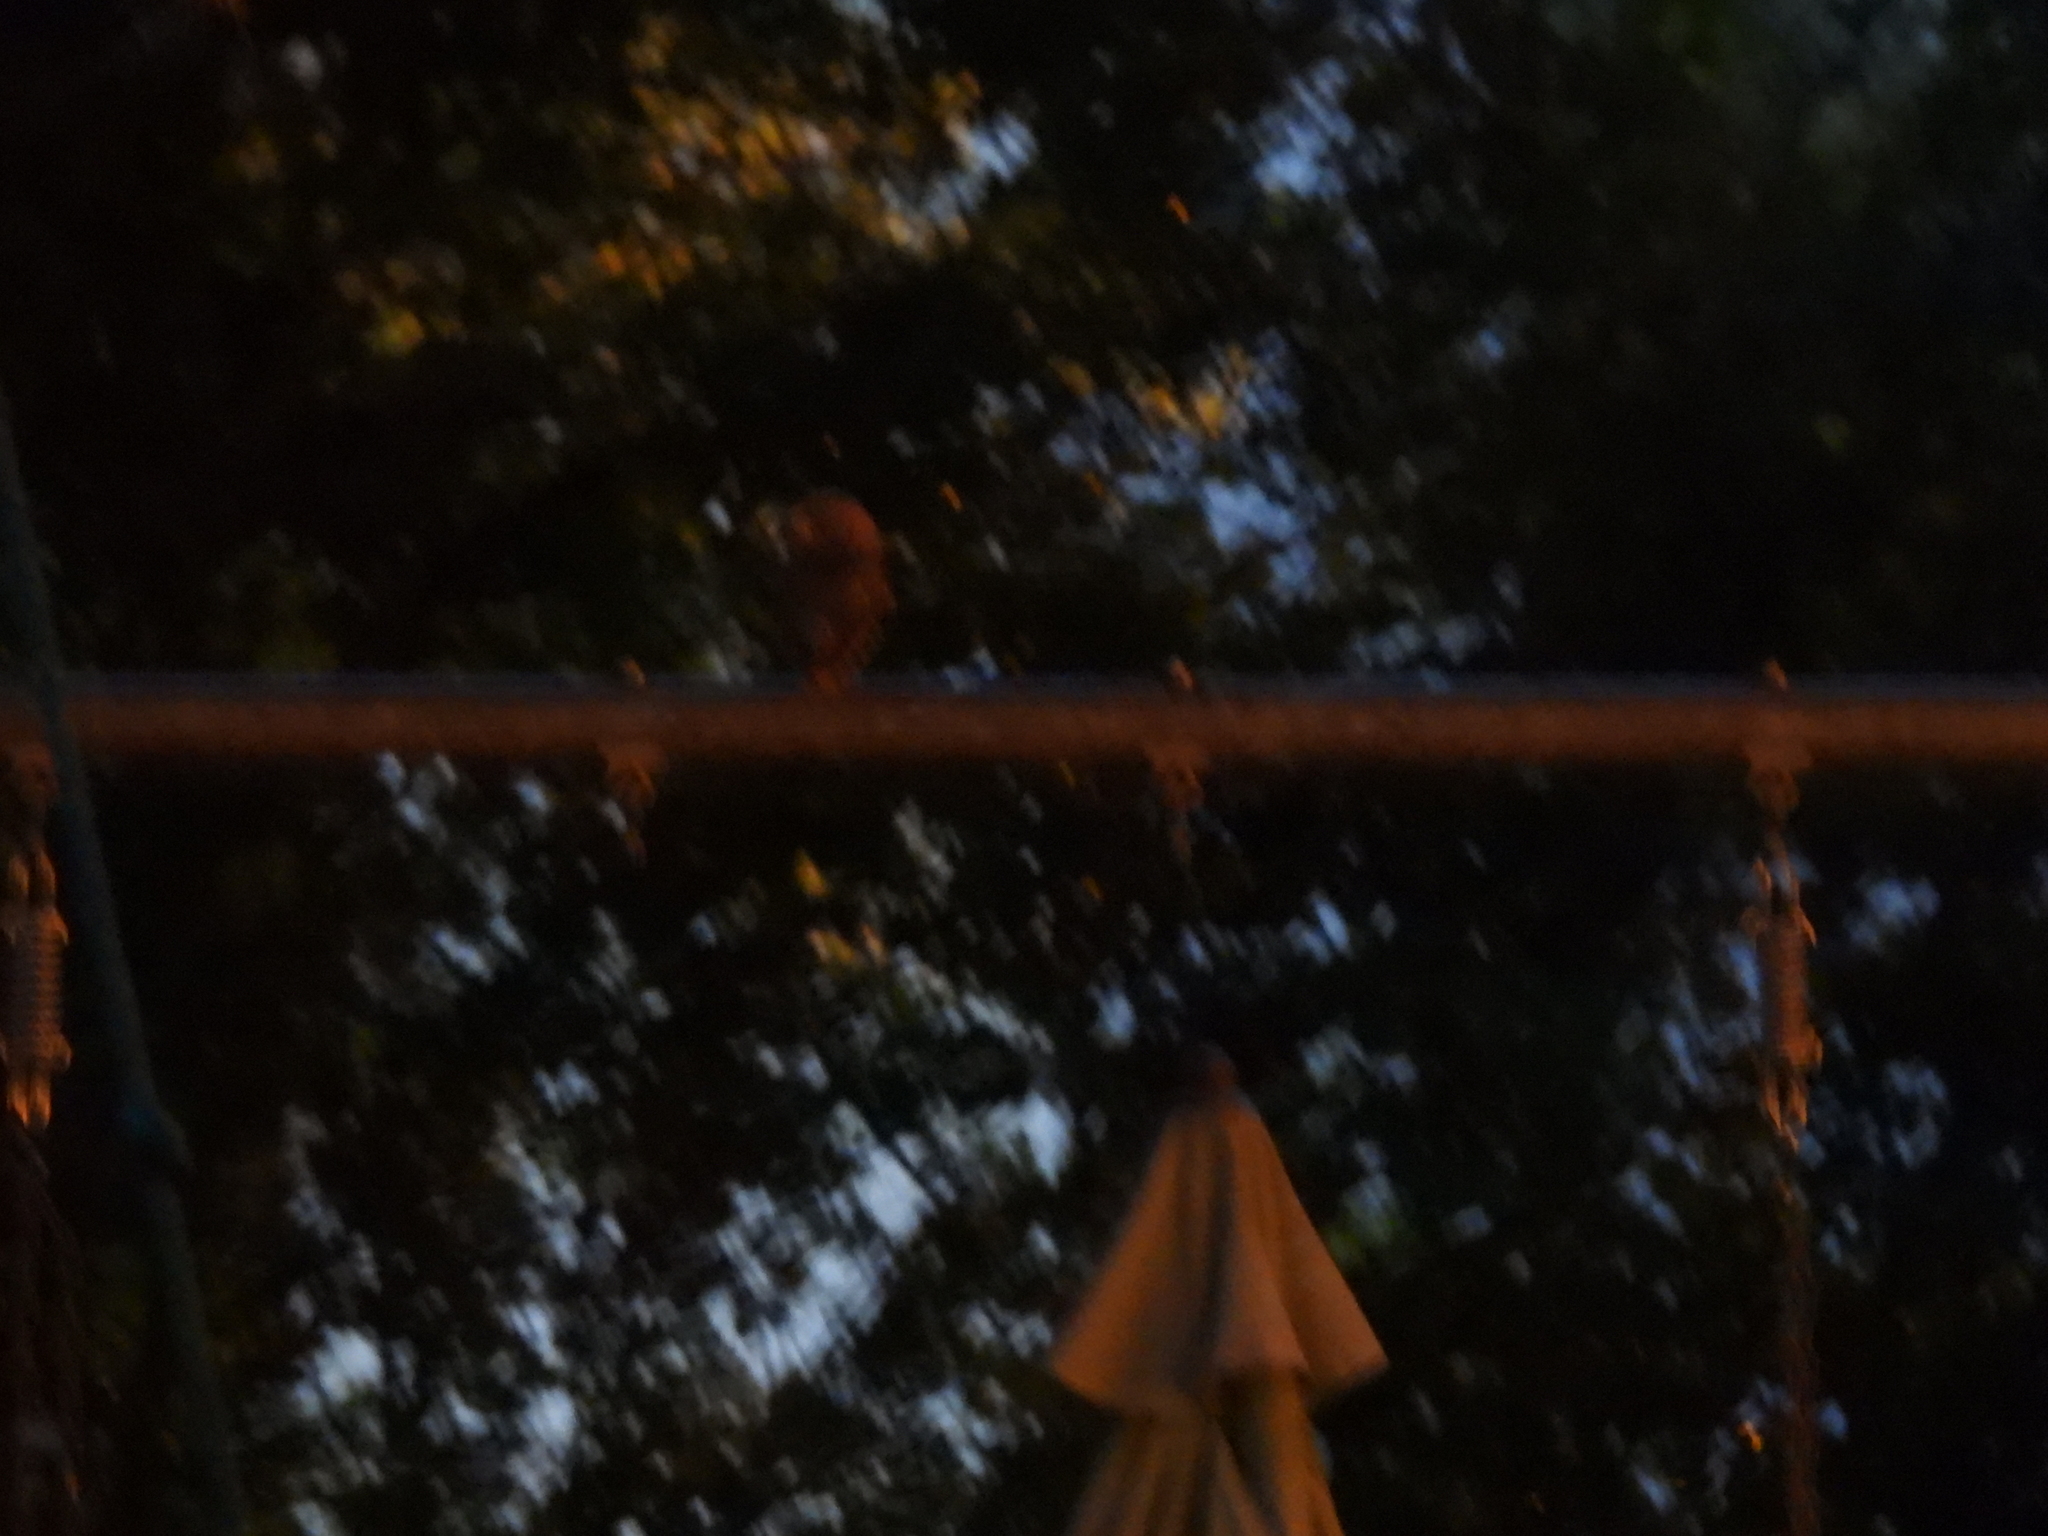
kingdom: Animalia
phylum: Chordata
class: Aves
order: Strigiformes
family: Strigidae
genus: Megascops
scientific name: Megascops asio
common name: Eastern screech-owl
